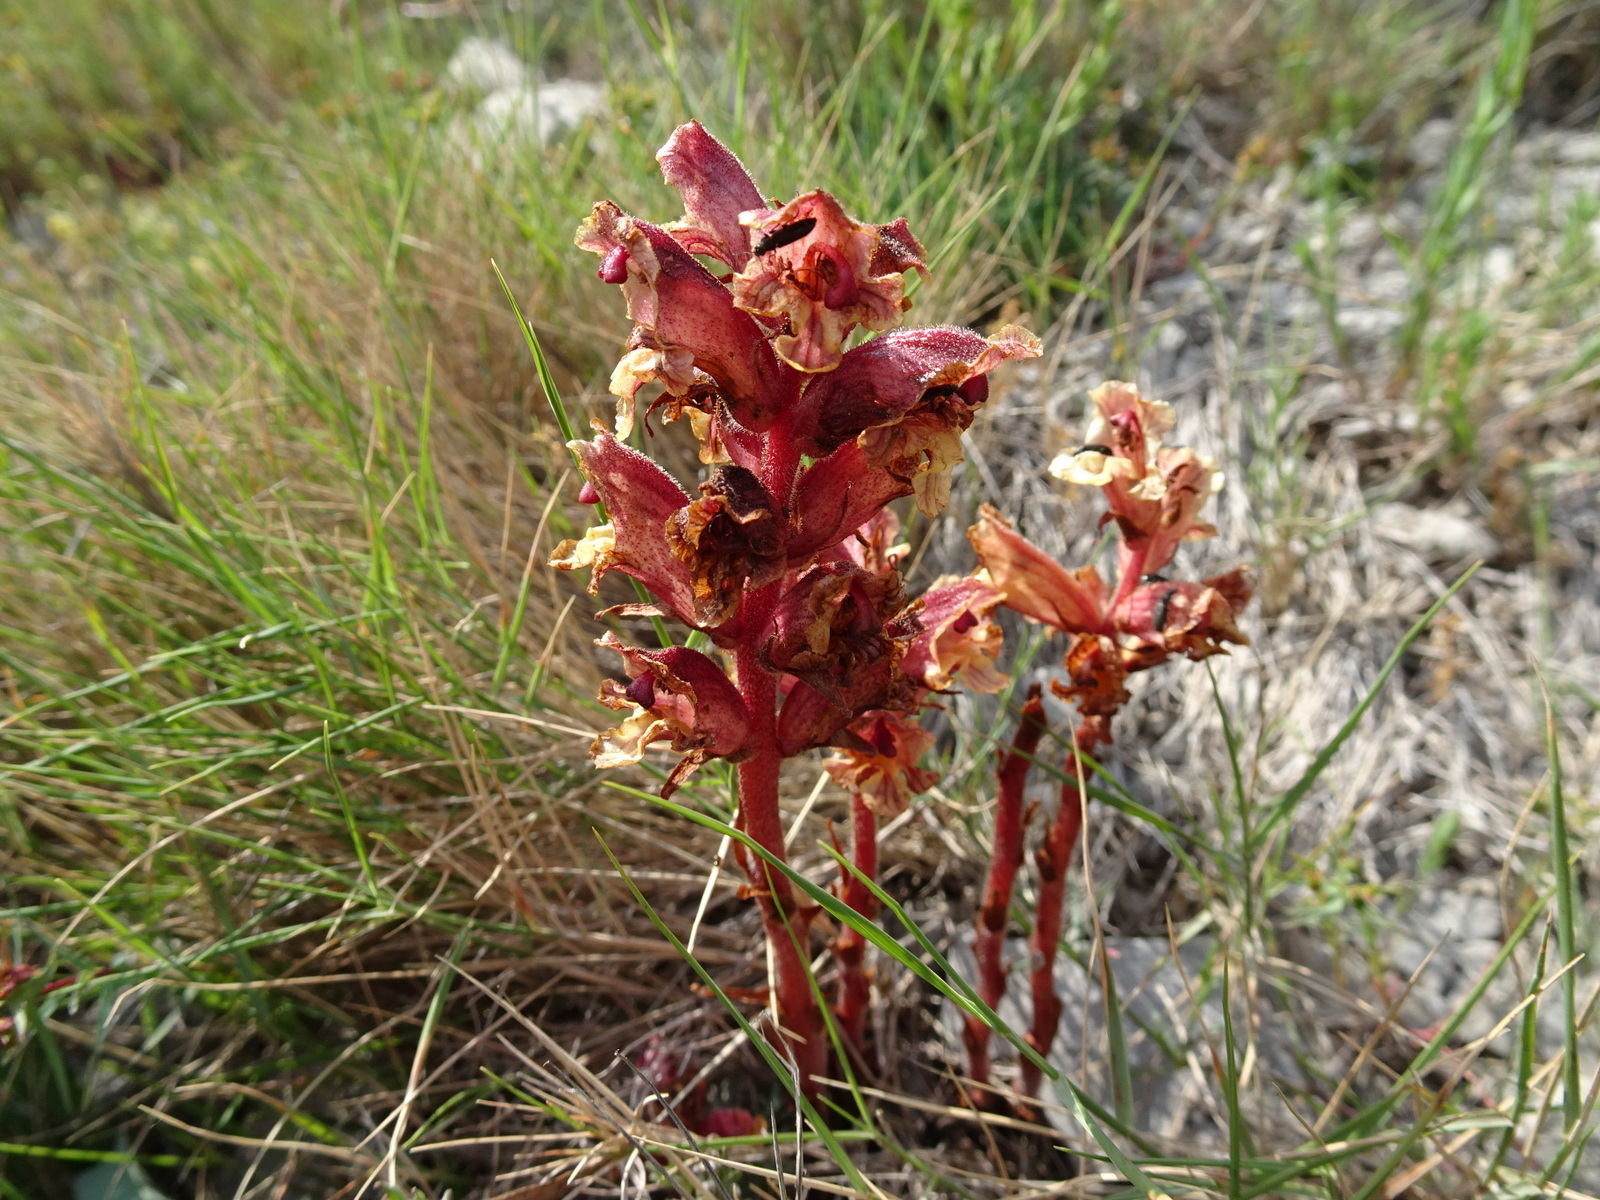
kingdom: Plantae
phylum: Tracheophyta
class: Magnoliopsida
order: Lamiales
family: Orobanchaceae
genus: Orobanche
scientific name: Orobanche alba
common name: Thyme broomrape
